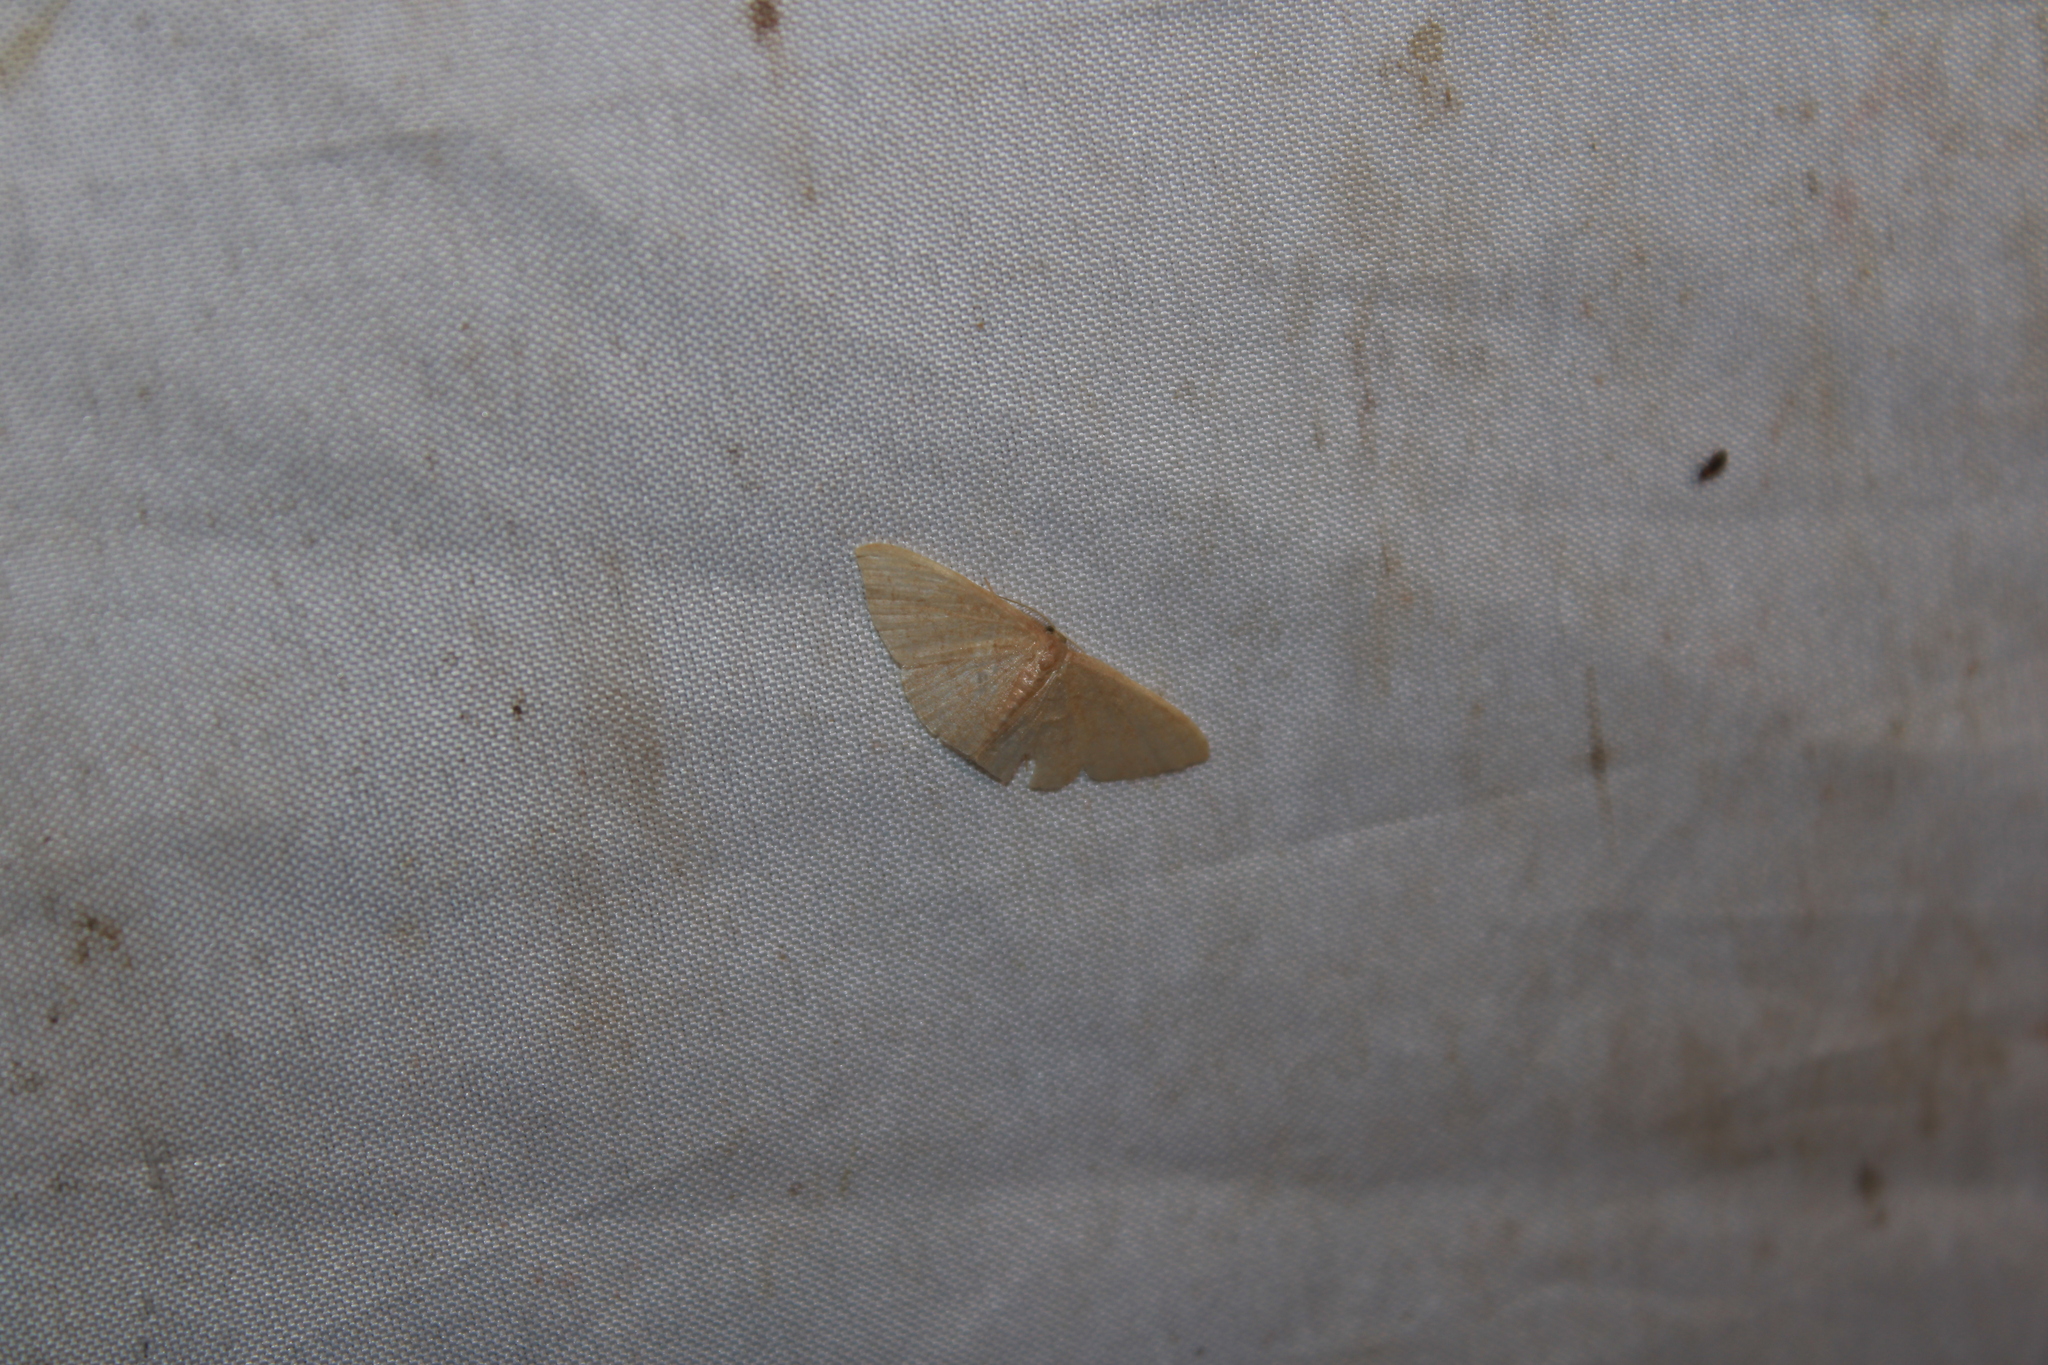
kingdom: Animalia
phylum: Arthropoda
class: Insecta
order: Lepidoptera
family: Geometridae
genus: Pleuroprucha
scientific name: Pleuroprucha insulsaria
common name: Common tan wave
